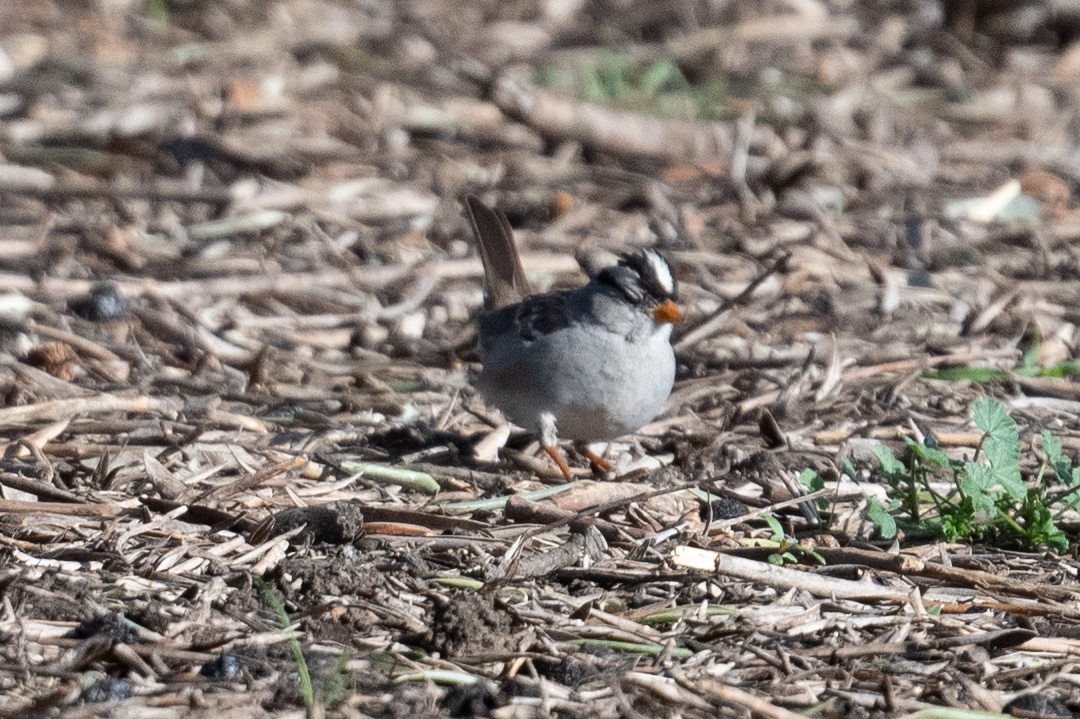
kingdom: Animalia
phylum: Chordata
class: Aves
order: Passeriformes
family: Passerellidae
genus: Zonotrichia
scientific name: Zonotrichia leucophrys
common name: White-crowned sparrow
